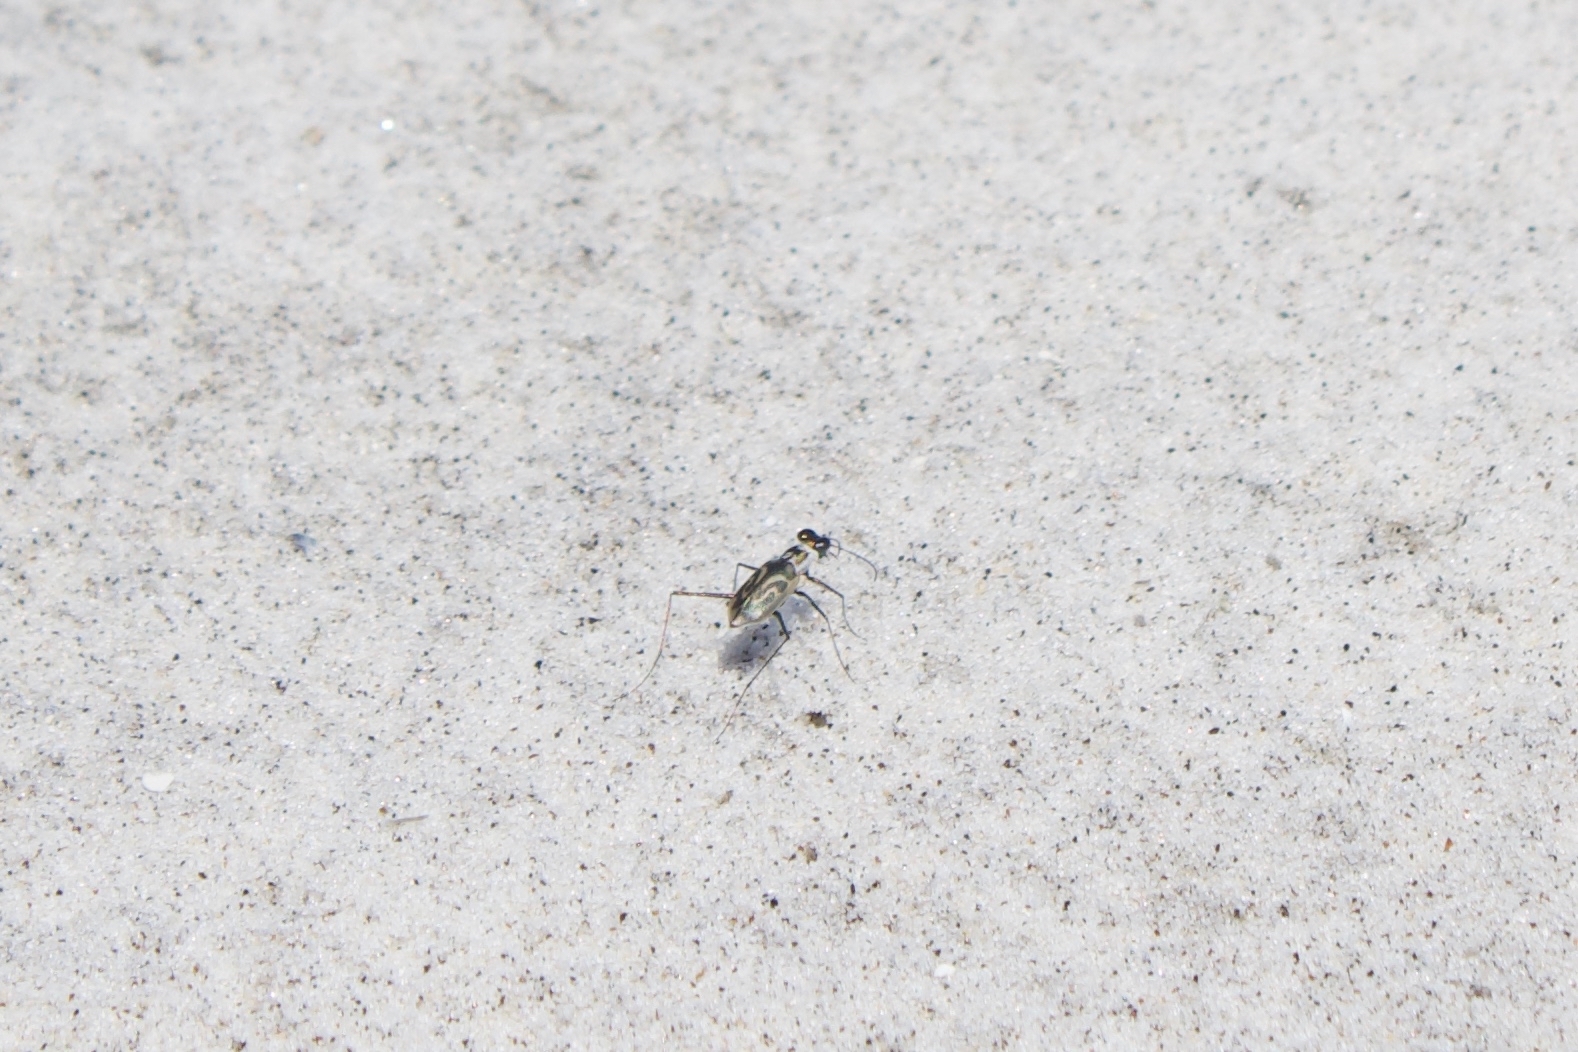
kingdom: Animalia
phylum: Arthropoda
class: Insecta
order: Coleoptera
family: Carabidae
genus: Habroscelimorpha
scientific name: Habroscelimorpha dorsalis
